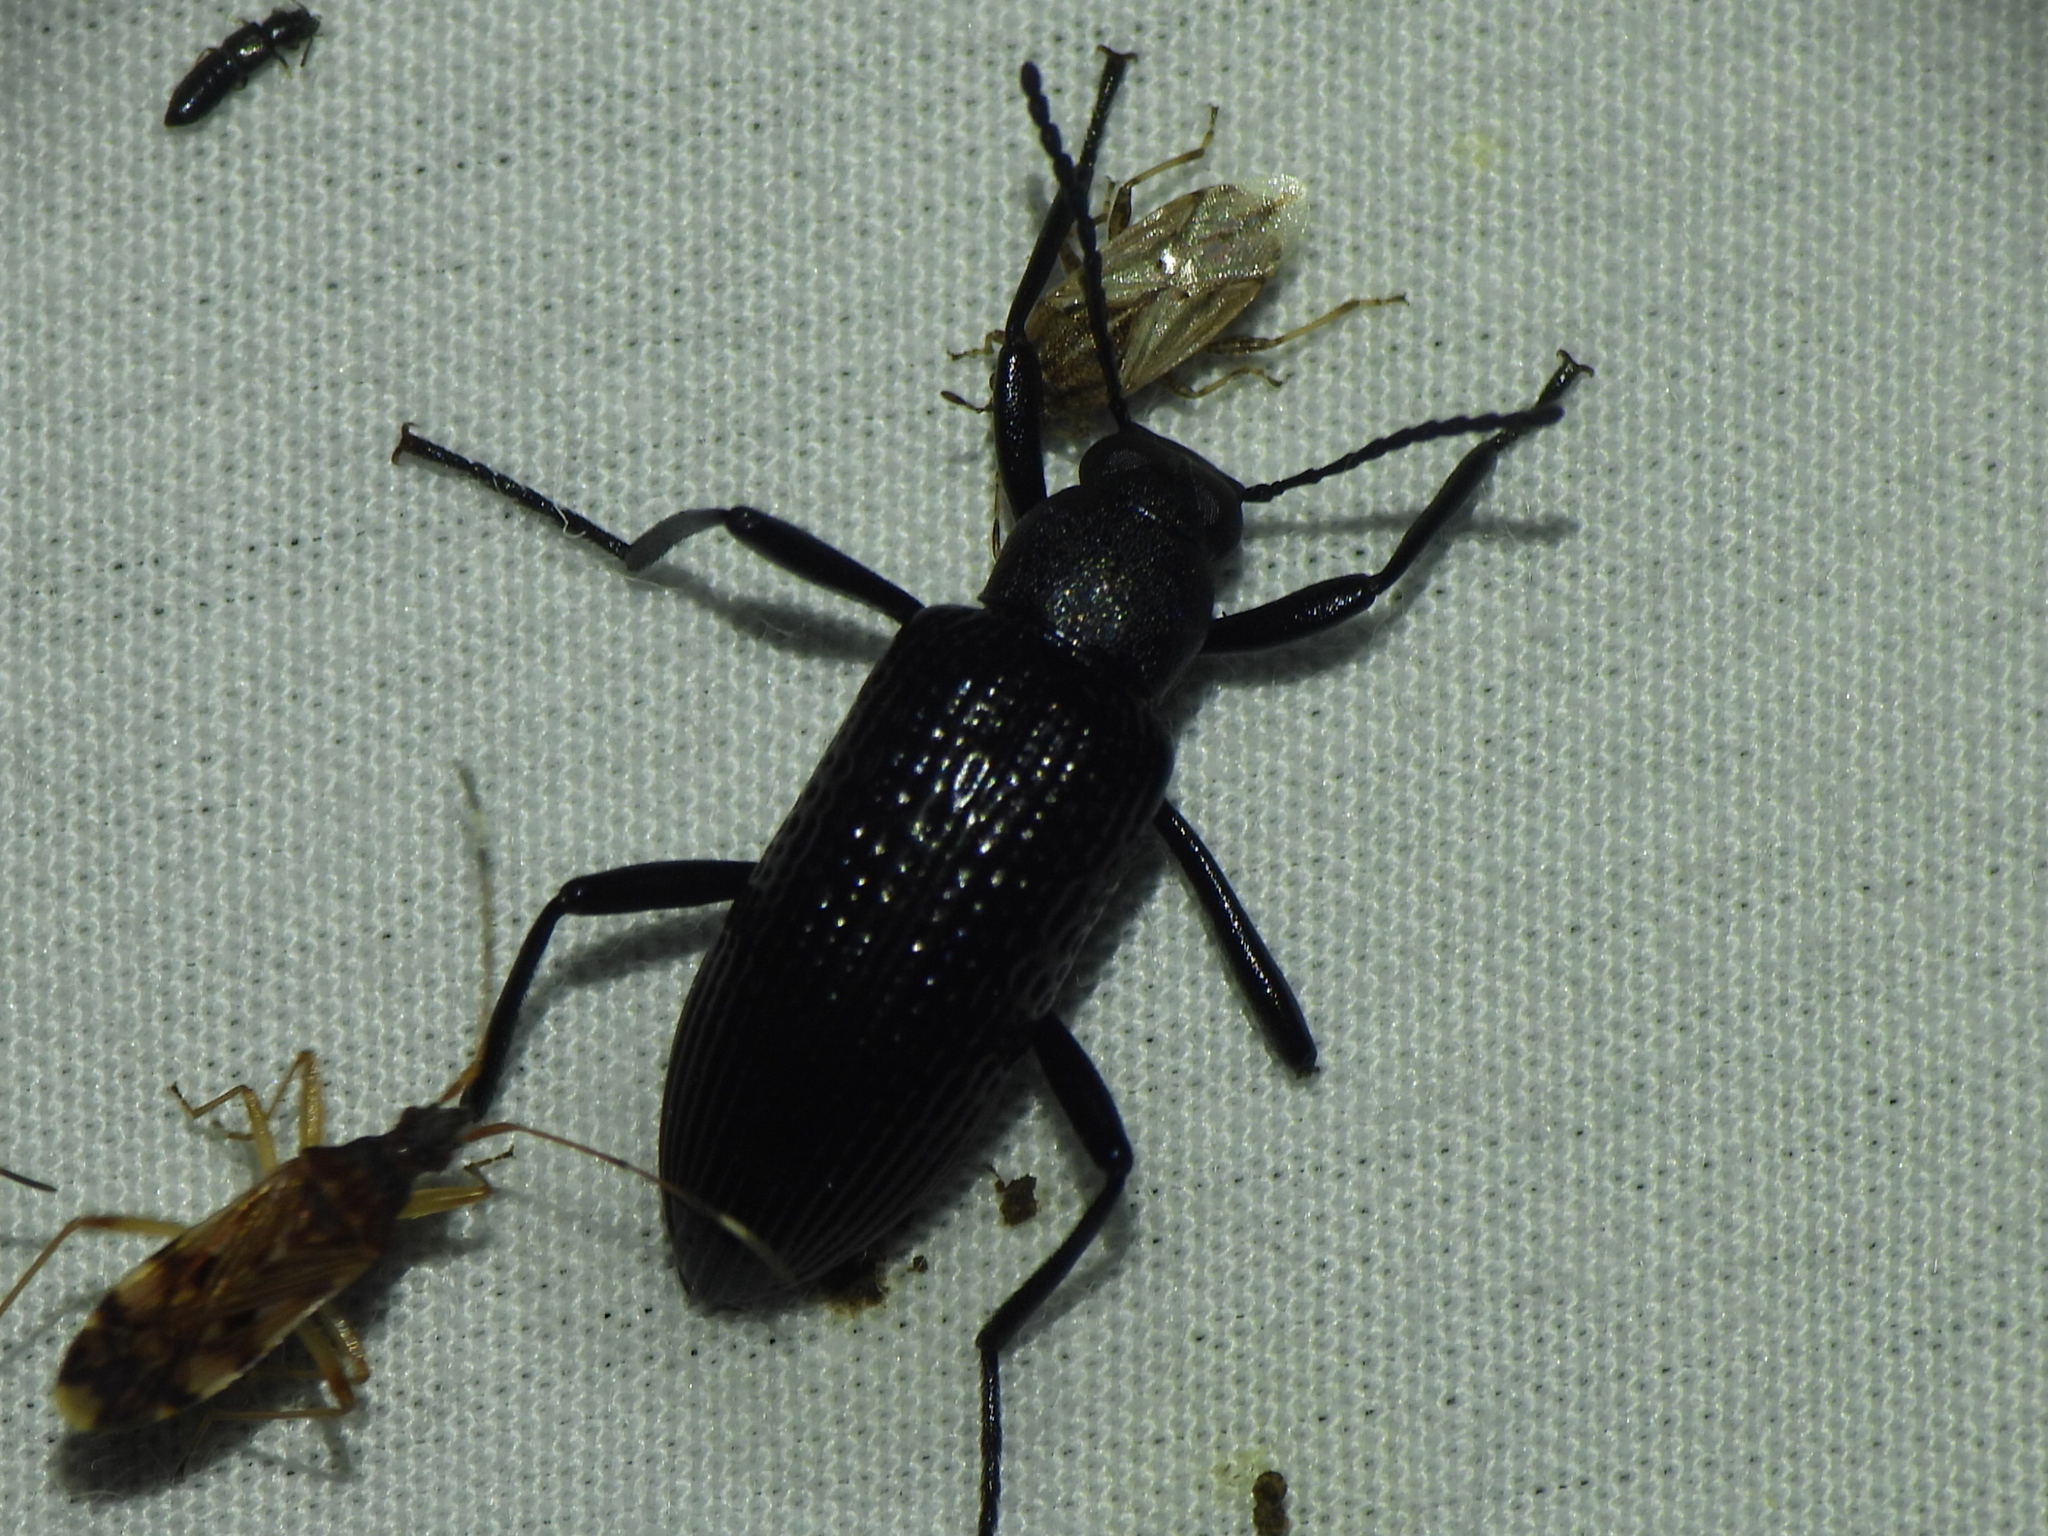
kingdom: Animalia
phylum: Arthropoda
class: Insecta
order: Coleoptera
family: Tenebrionidae
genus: Strongylium
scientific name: Strongylium hemistriatum
